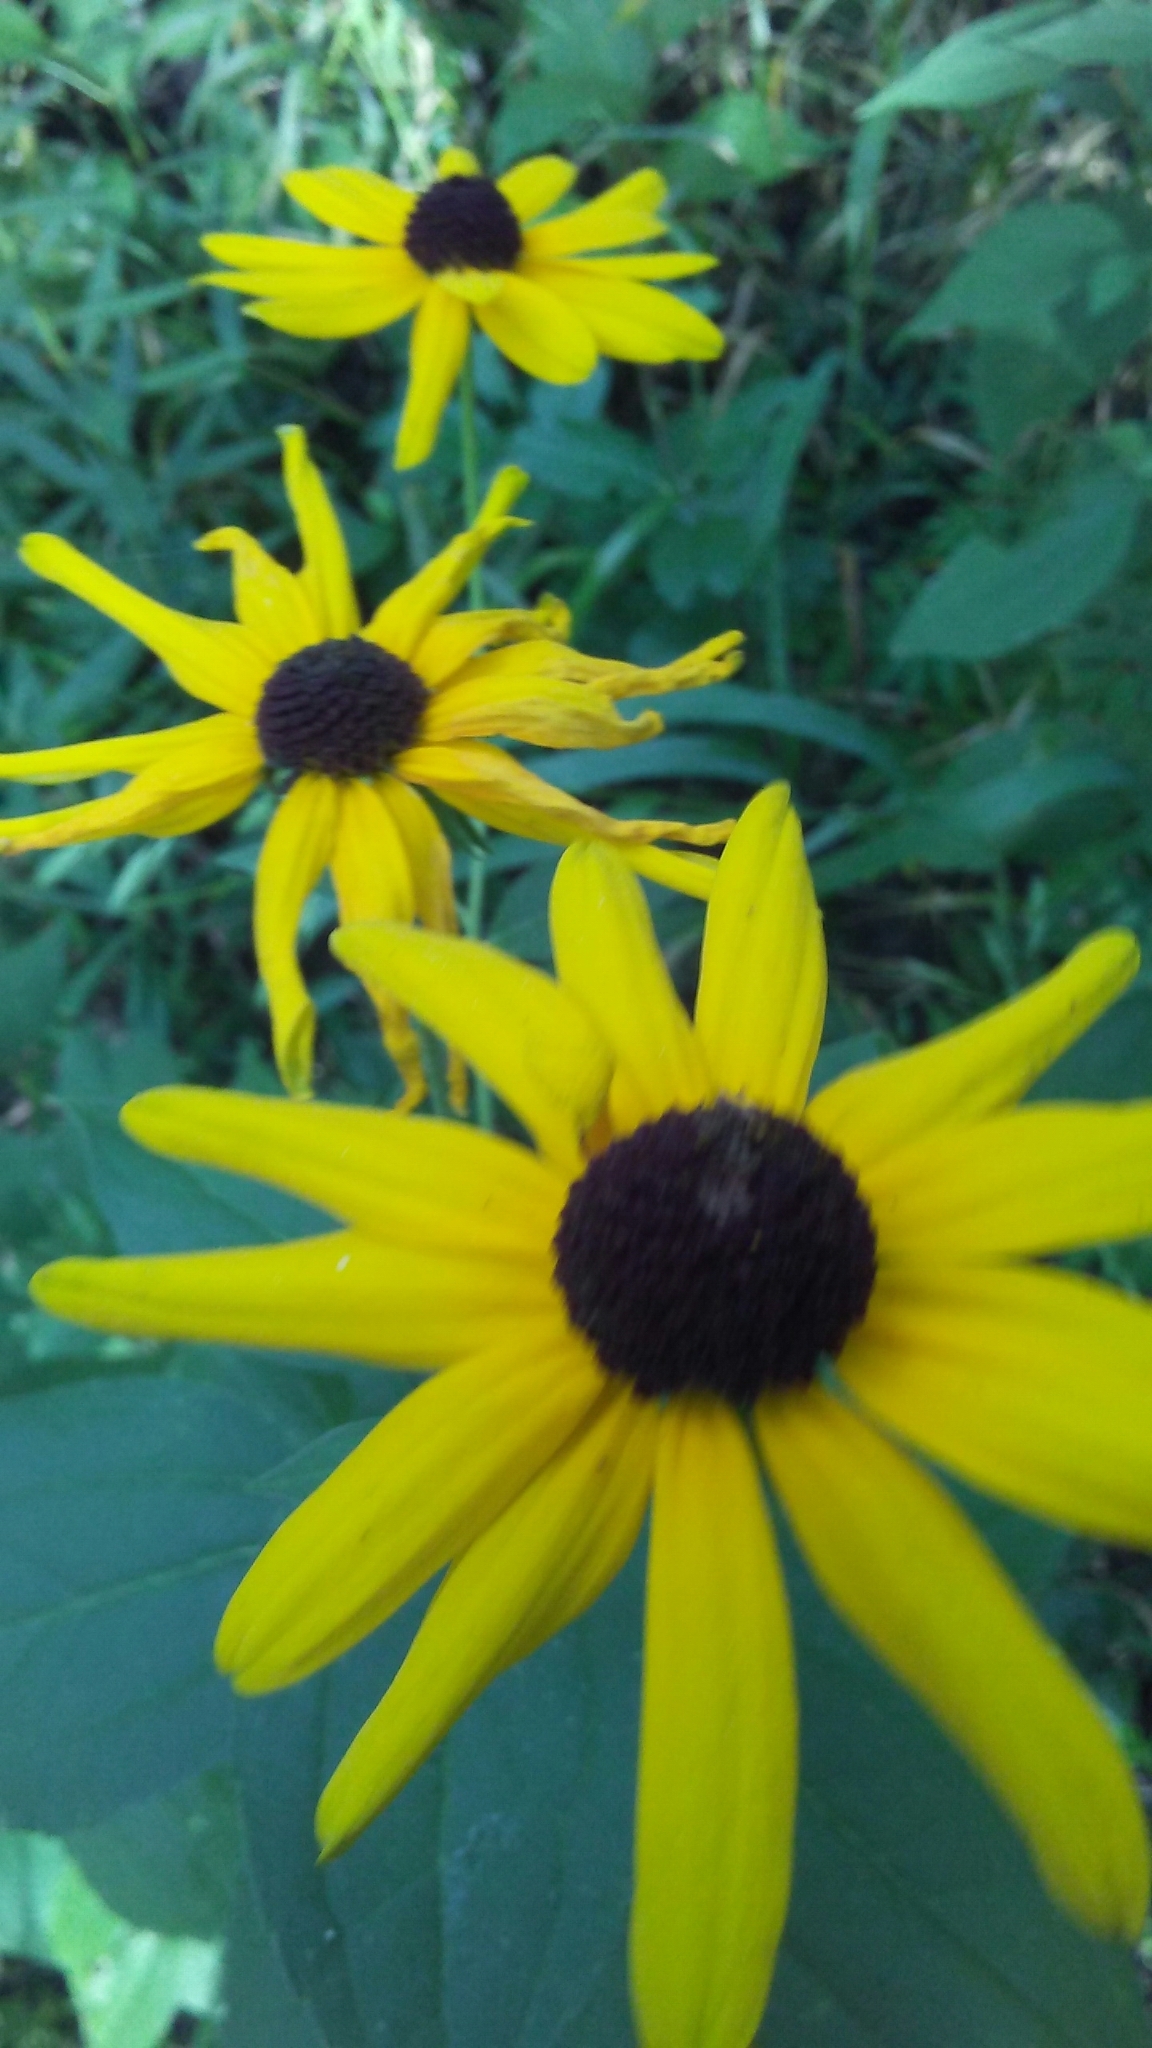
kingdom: Plantae
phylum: Tracheophyta
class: Magnoliopsida
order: Asterales
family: Asteraceae
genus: Rudbeckia
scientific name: Rudbeckia subtomentosa
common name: Sweet coneflower
